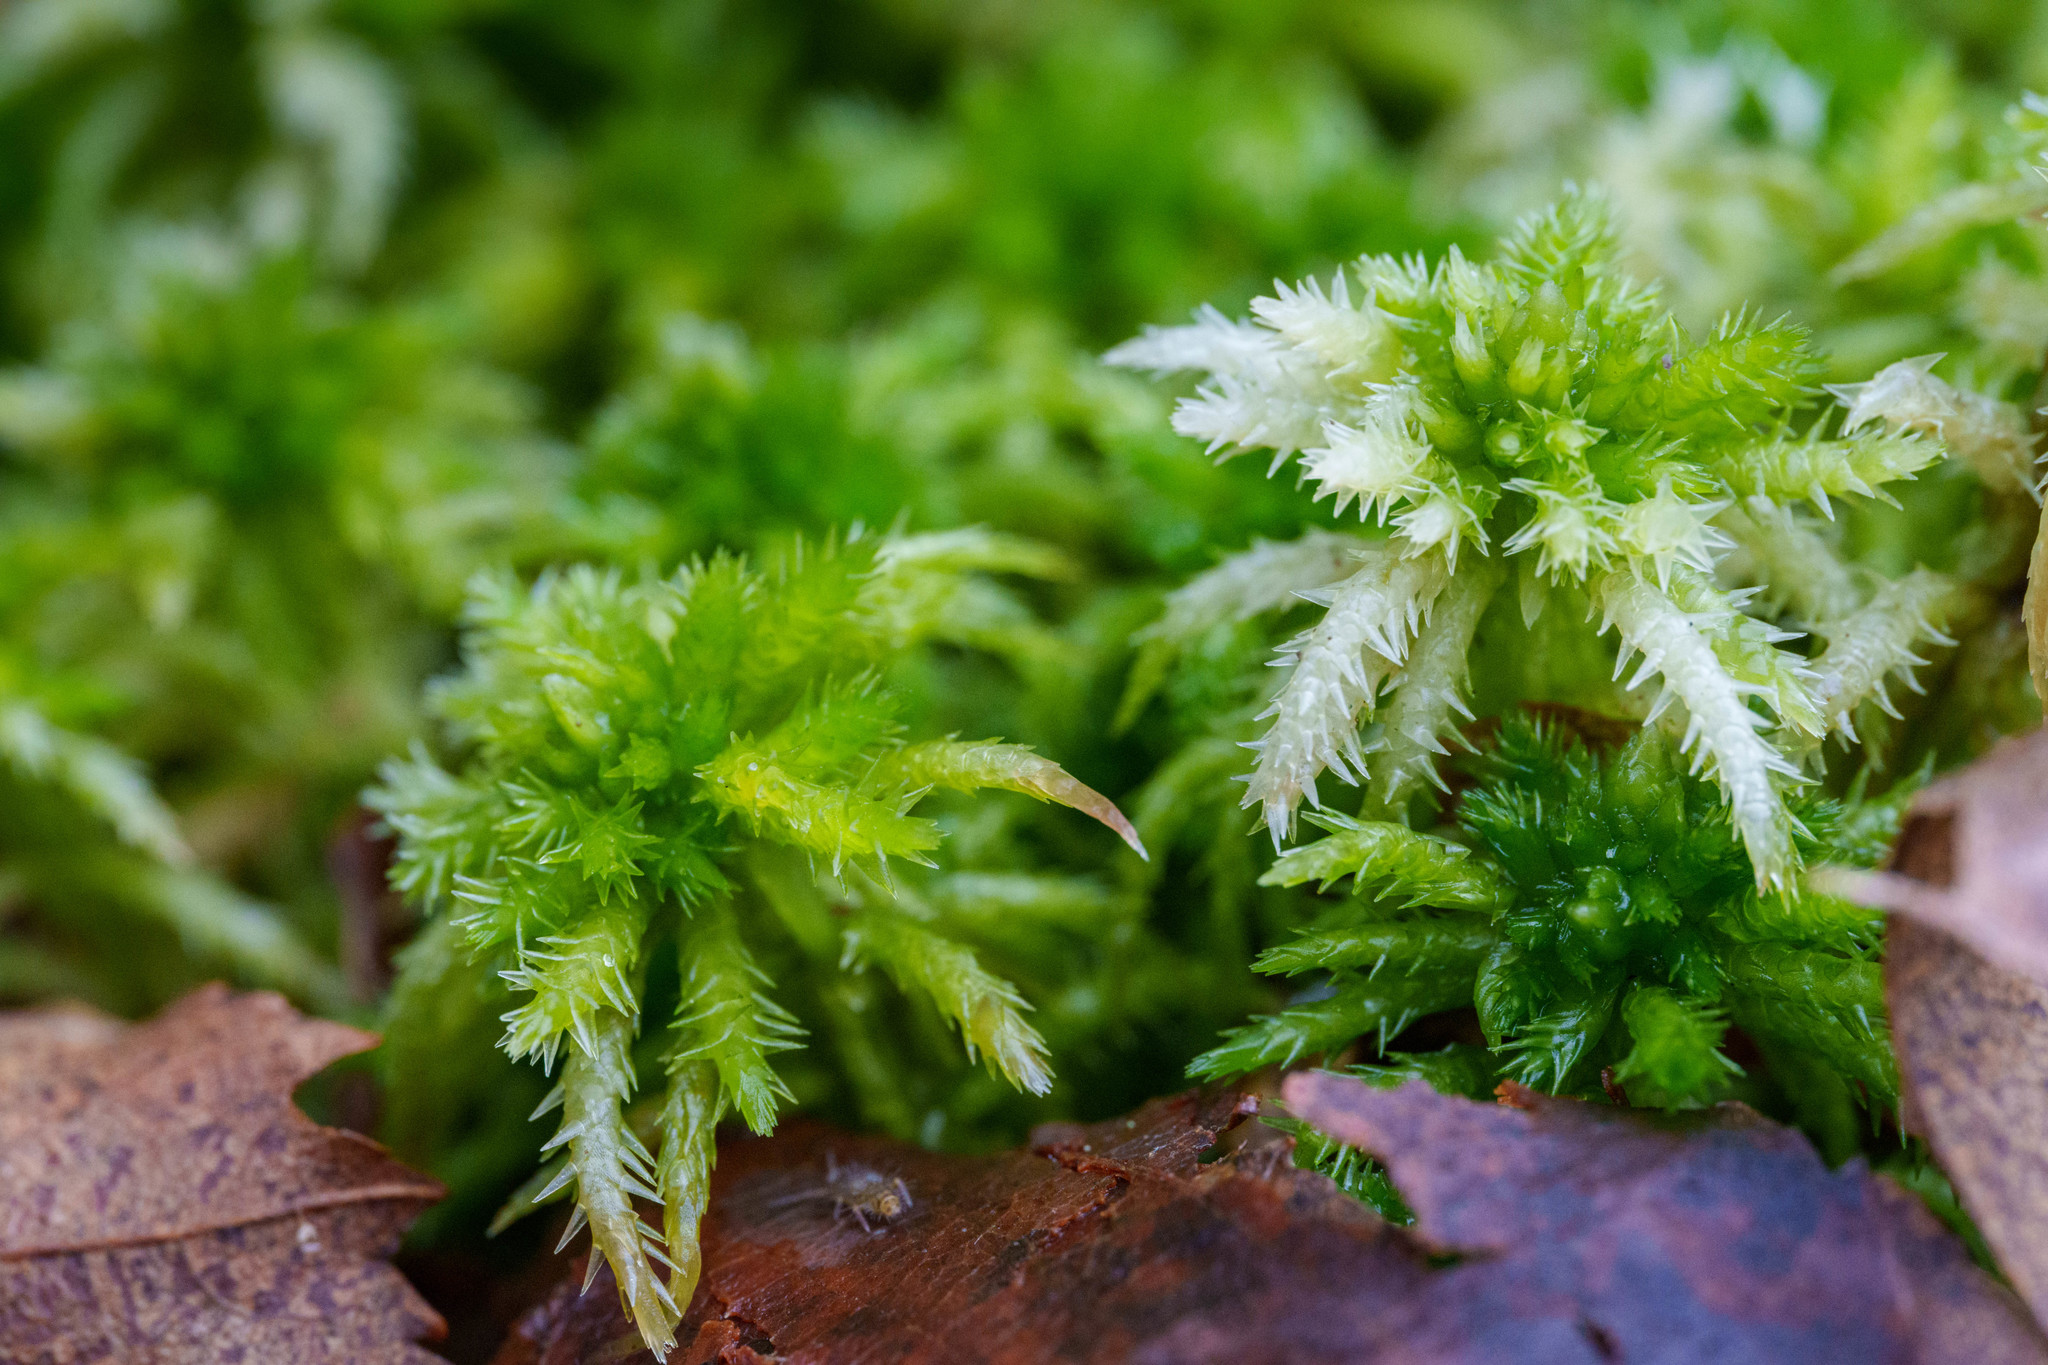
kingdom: Plantae
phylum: Bryophyta
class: Sphagnopsida
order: Sphagnales
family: Sphagnaceae
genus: Sphagnum
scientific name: Sphagnum squarrosum
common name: Shaggy peat moss
